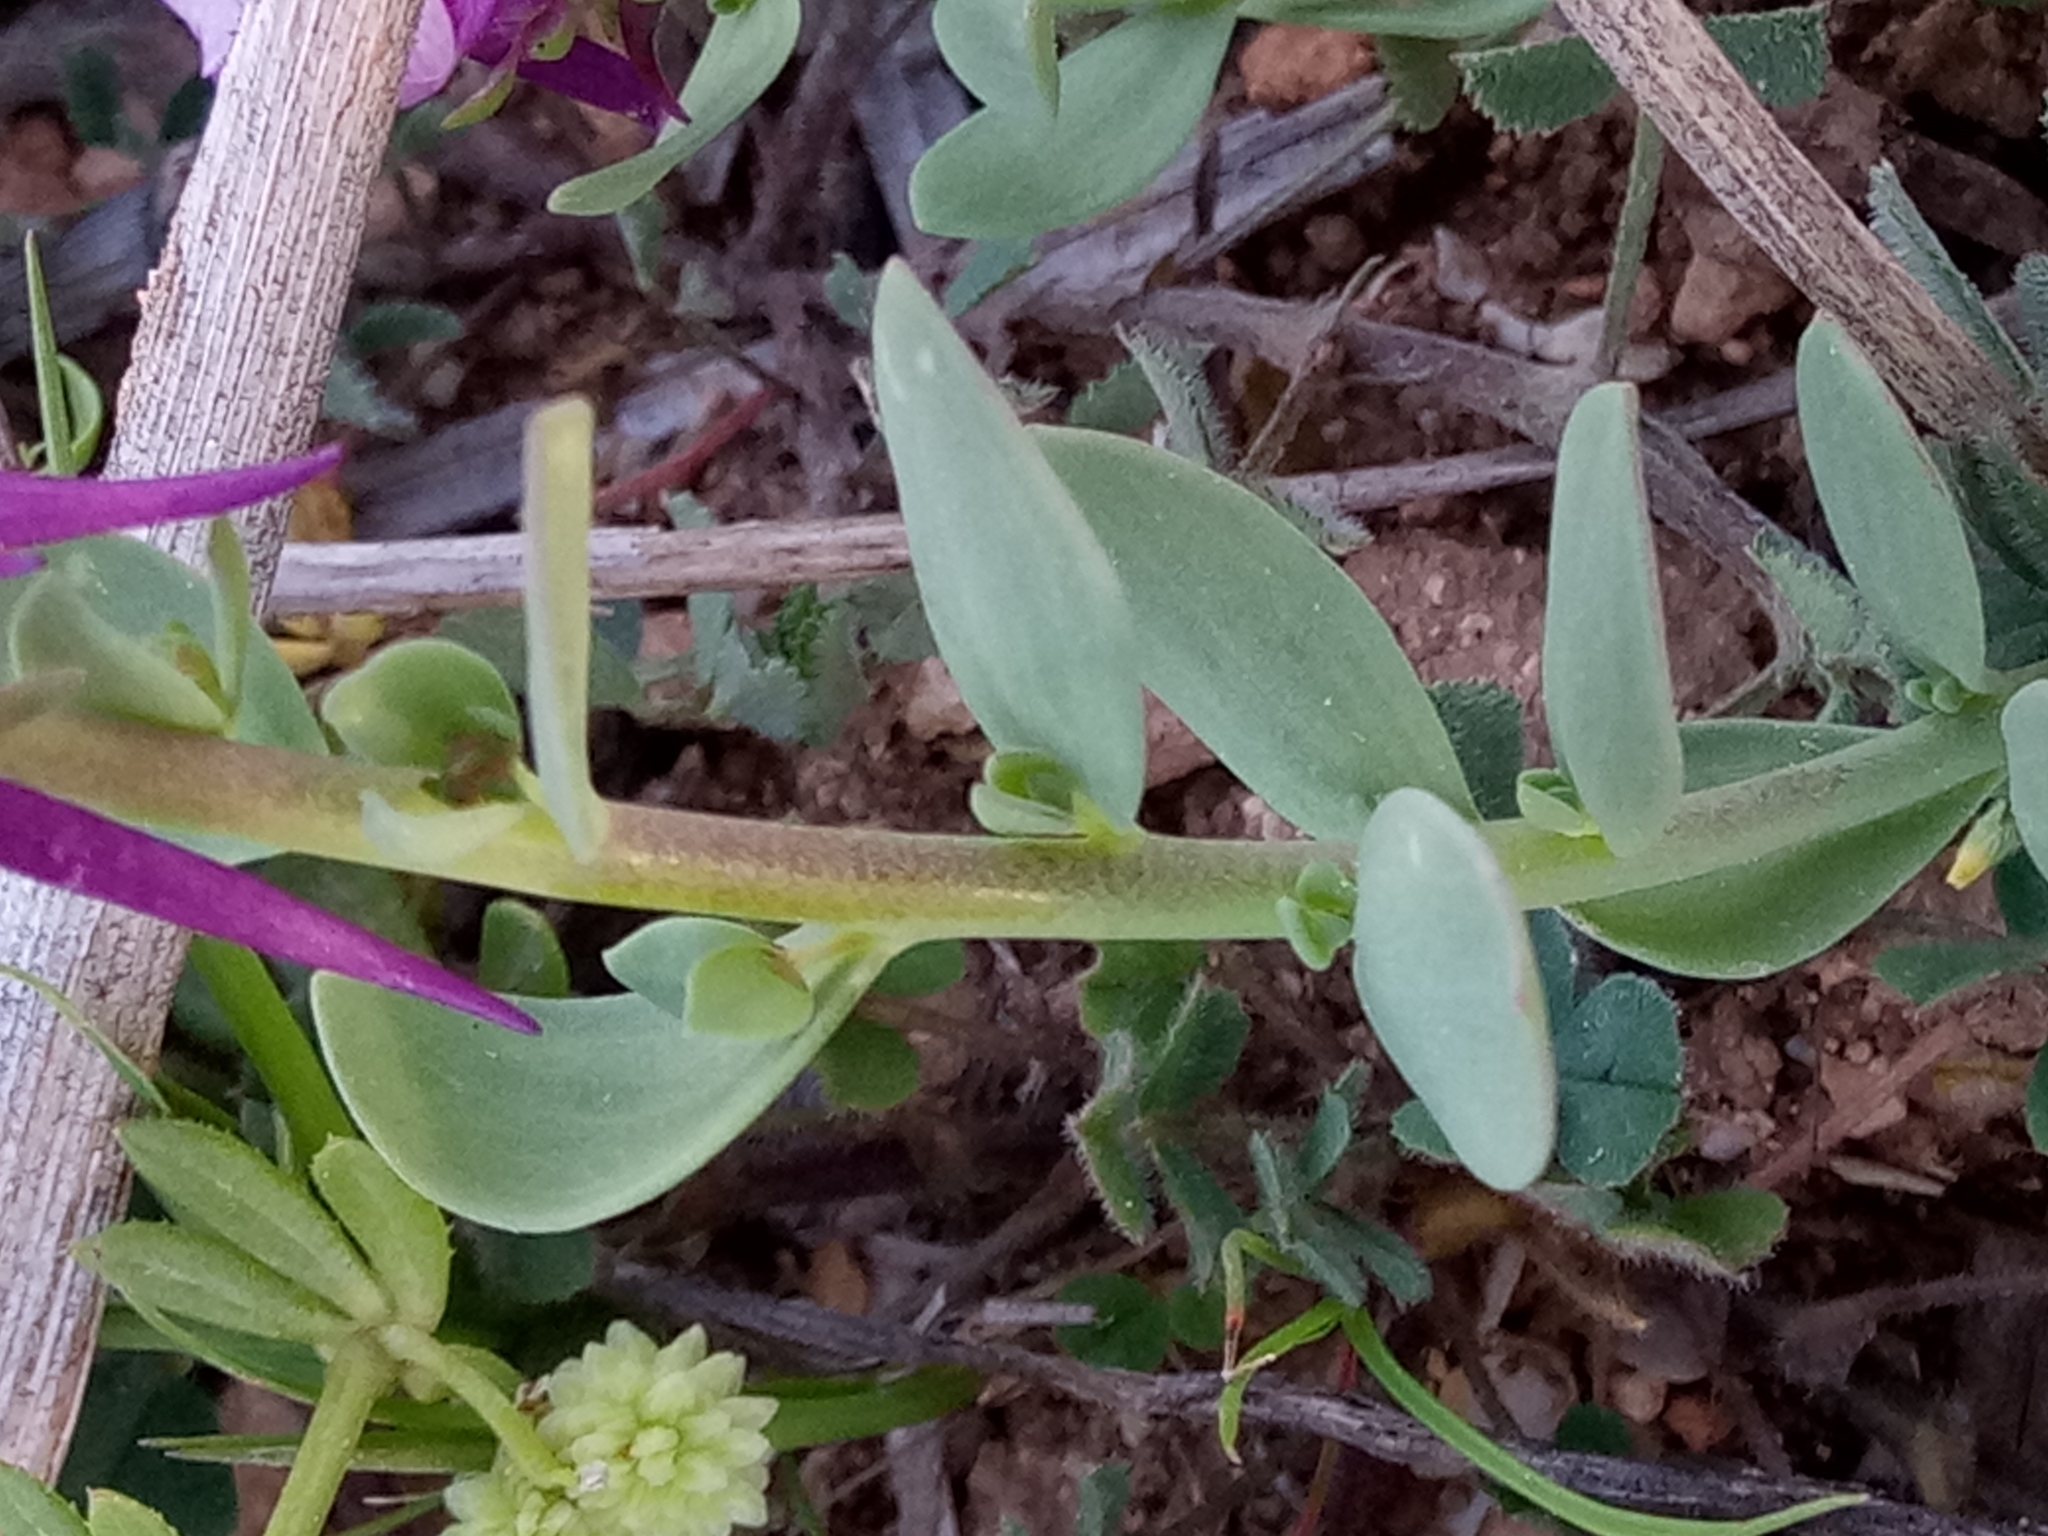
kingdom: Plantae
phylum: Tracheophyta
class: Magnoliopsida
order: Lamiales
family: Plantaginaceae
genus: Linaria
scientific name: Linaria virgata
